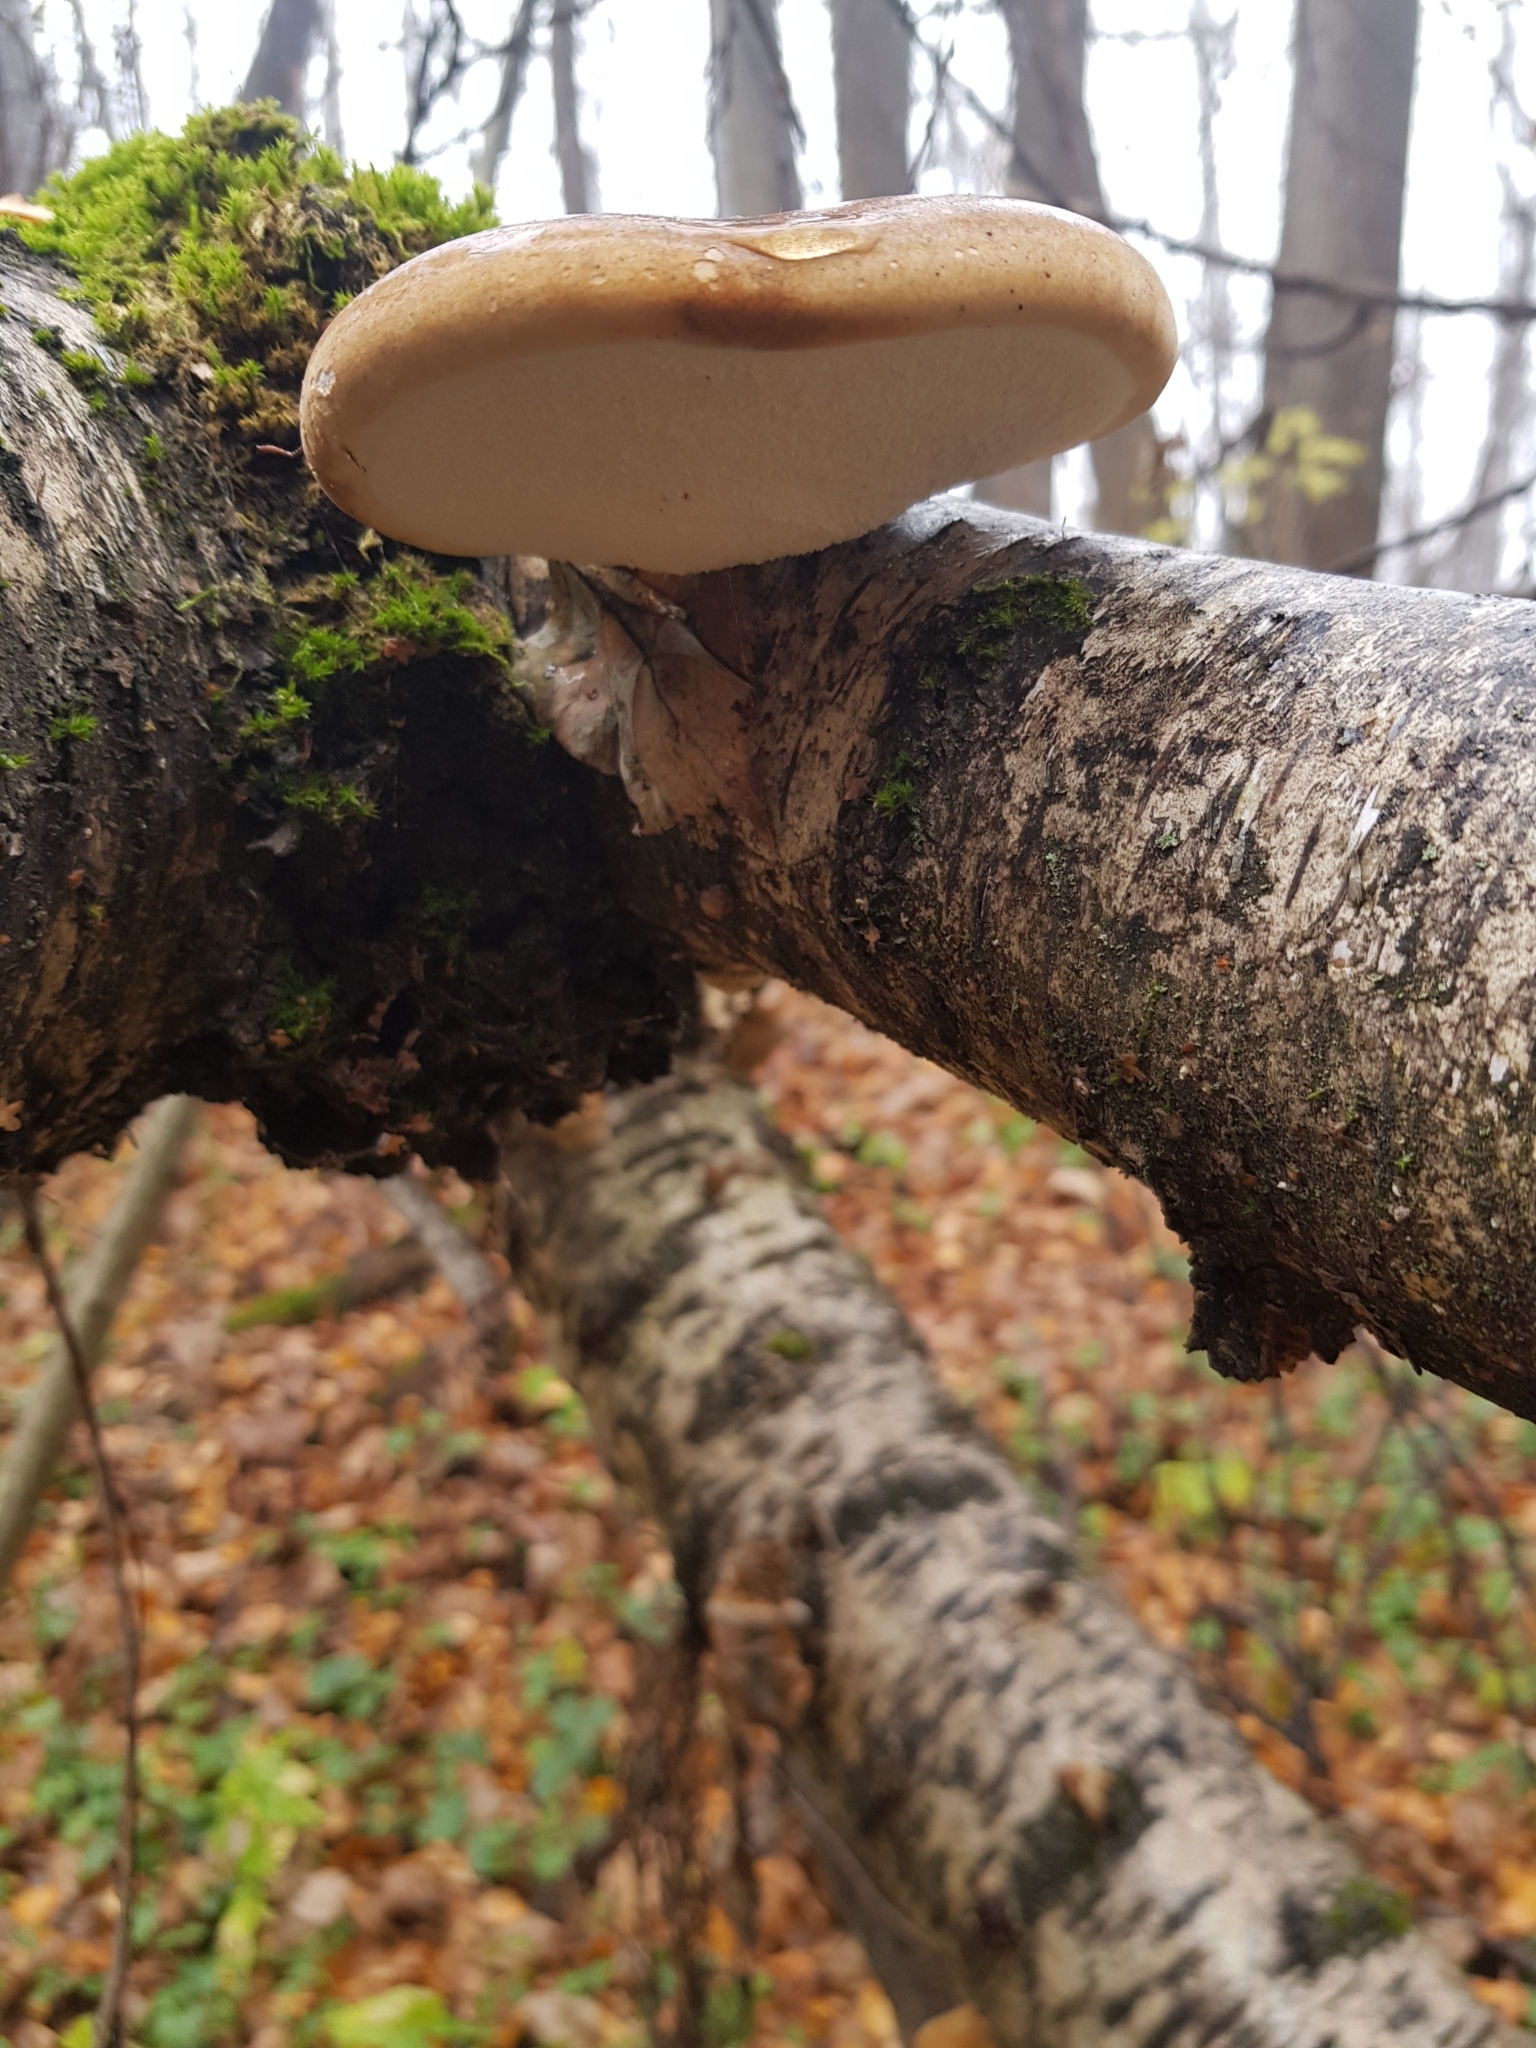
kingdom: Fungi
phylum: Basidiomycota
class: Agaricomycetes
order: Polyporales
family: Fomitopsidaceae
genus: Fomitopsis
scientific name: Fomitopsis betulina
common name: Birch polypore
